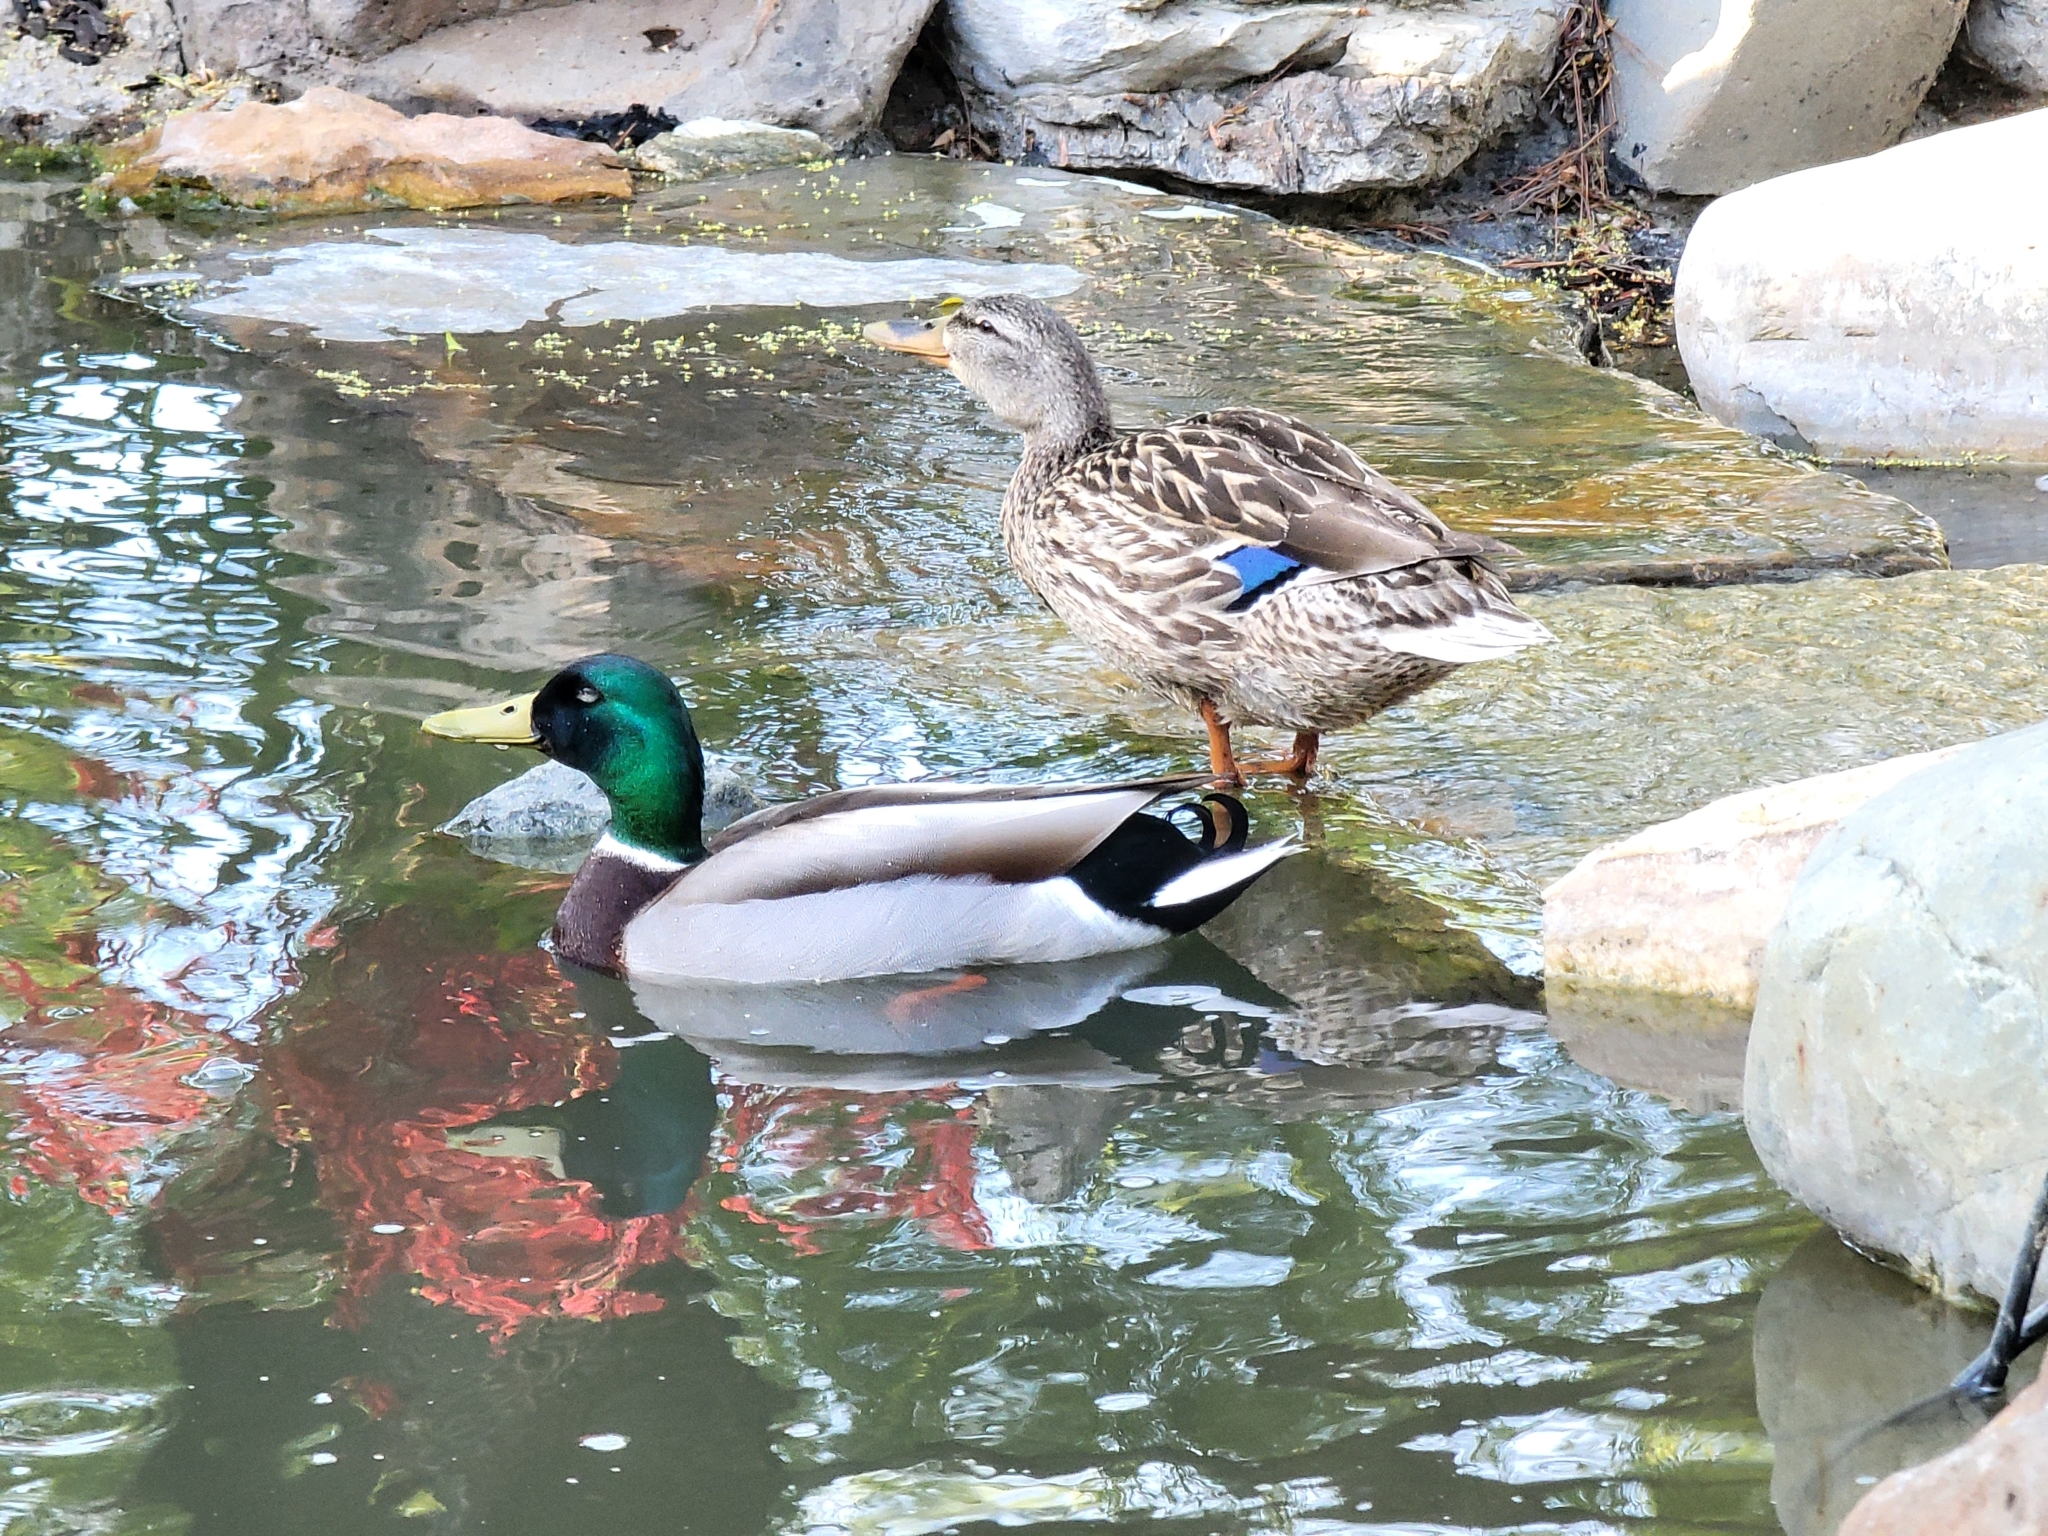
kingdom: Animalia
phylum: Chordata
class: Aves
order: Anseriformes
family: Anatidae
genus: Anas
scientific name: Anas platyrhynchos
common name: Mallard
